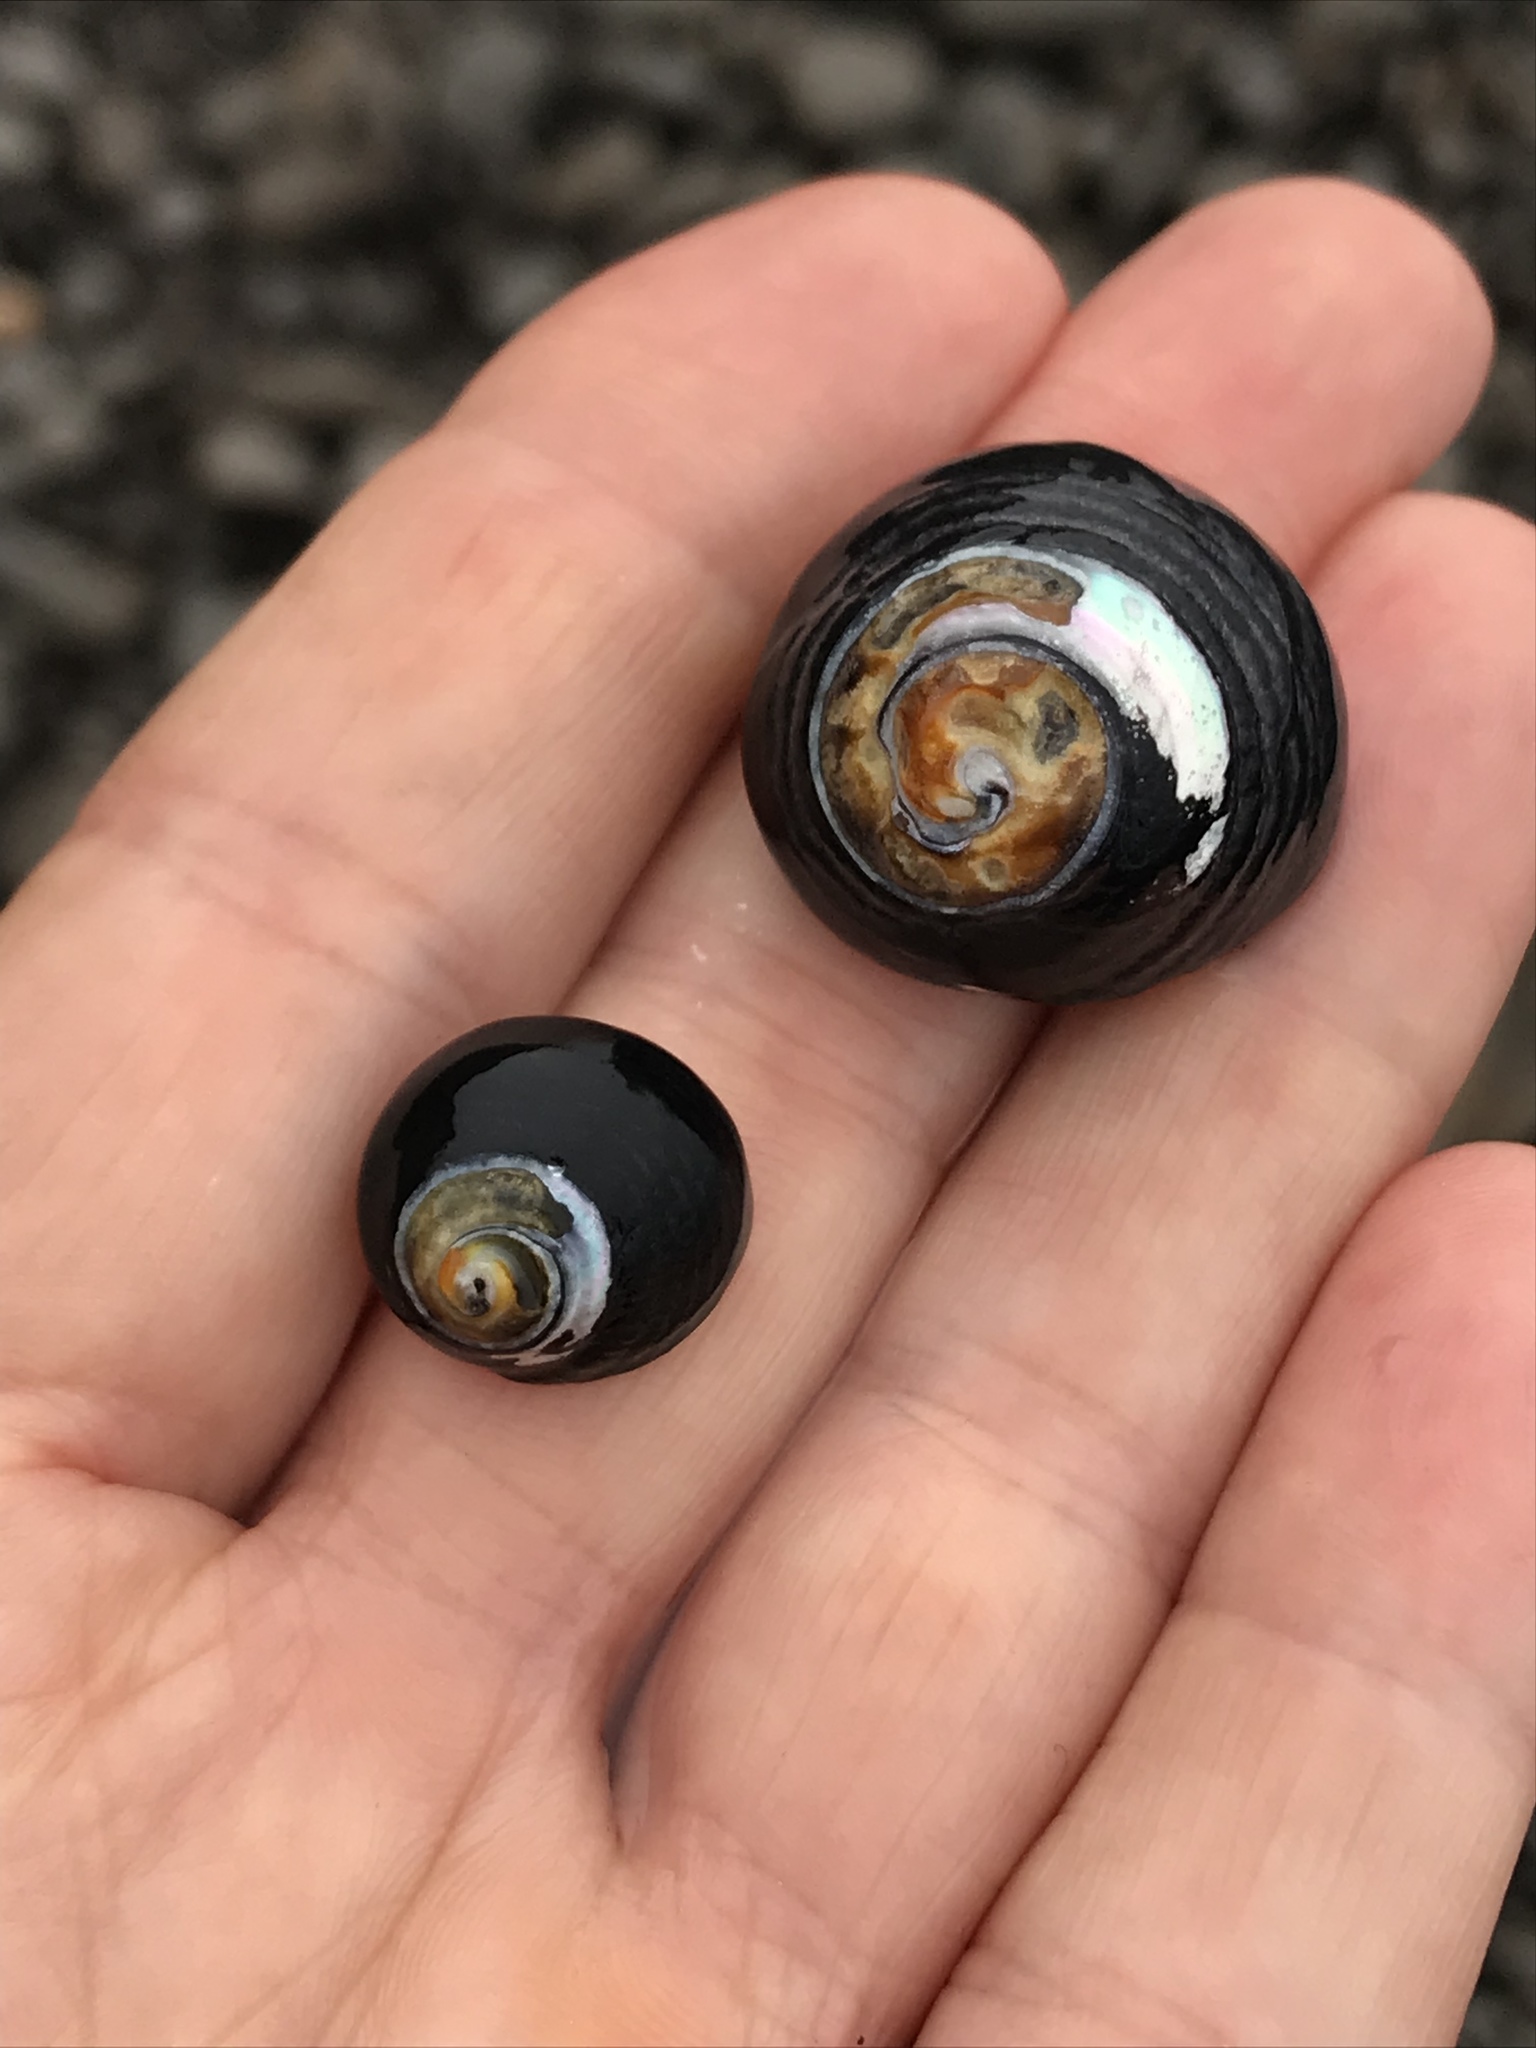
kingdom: Animalia
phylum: Mollusca
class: Gastropoda
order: Trochida
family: Tegulidae
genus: Tegula
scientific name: Tegula funebralis
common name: Black tegula
